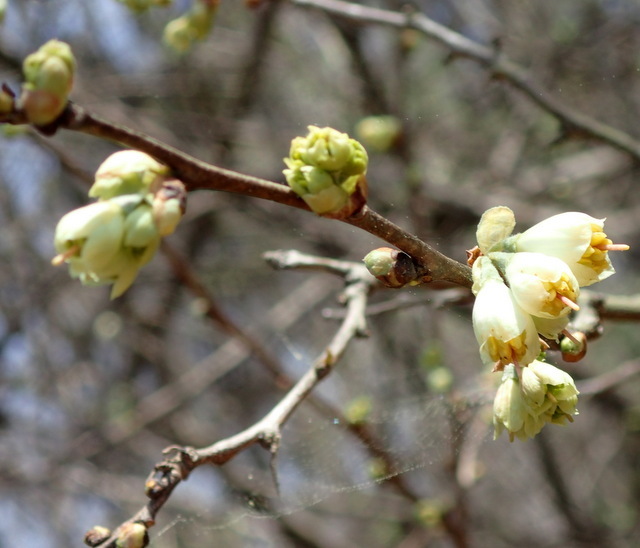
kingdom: Plantae
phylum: Tracheophyta
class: Magnoliopsida
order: Ericales
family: Styracaceae
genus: Halesia
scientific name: Halesia carolina
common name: Carolina silverbell
